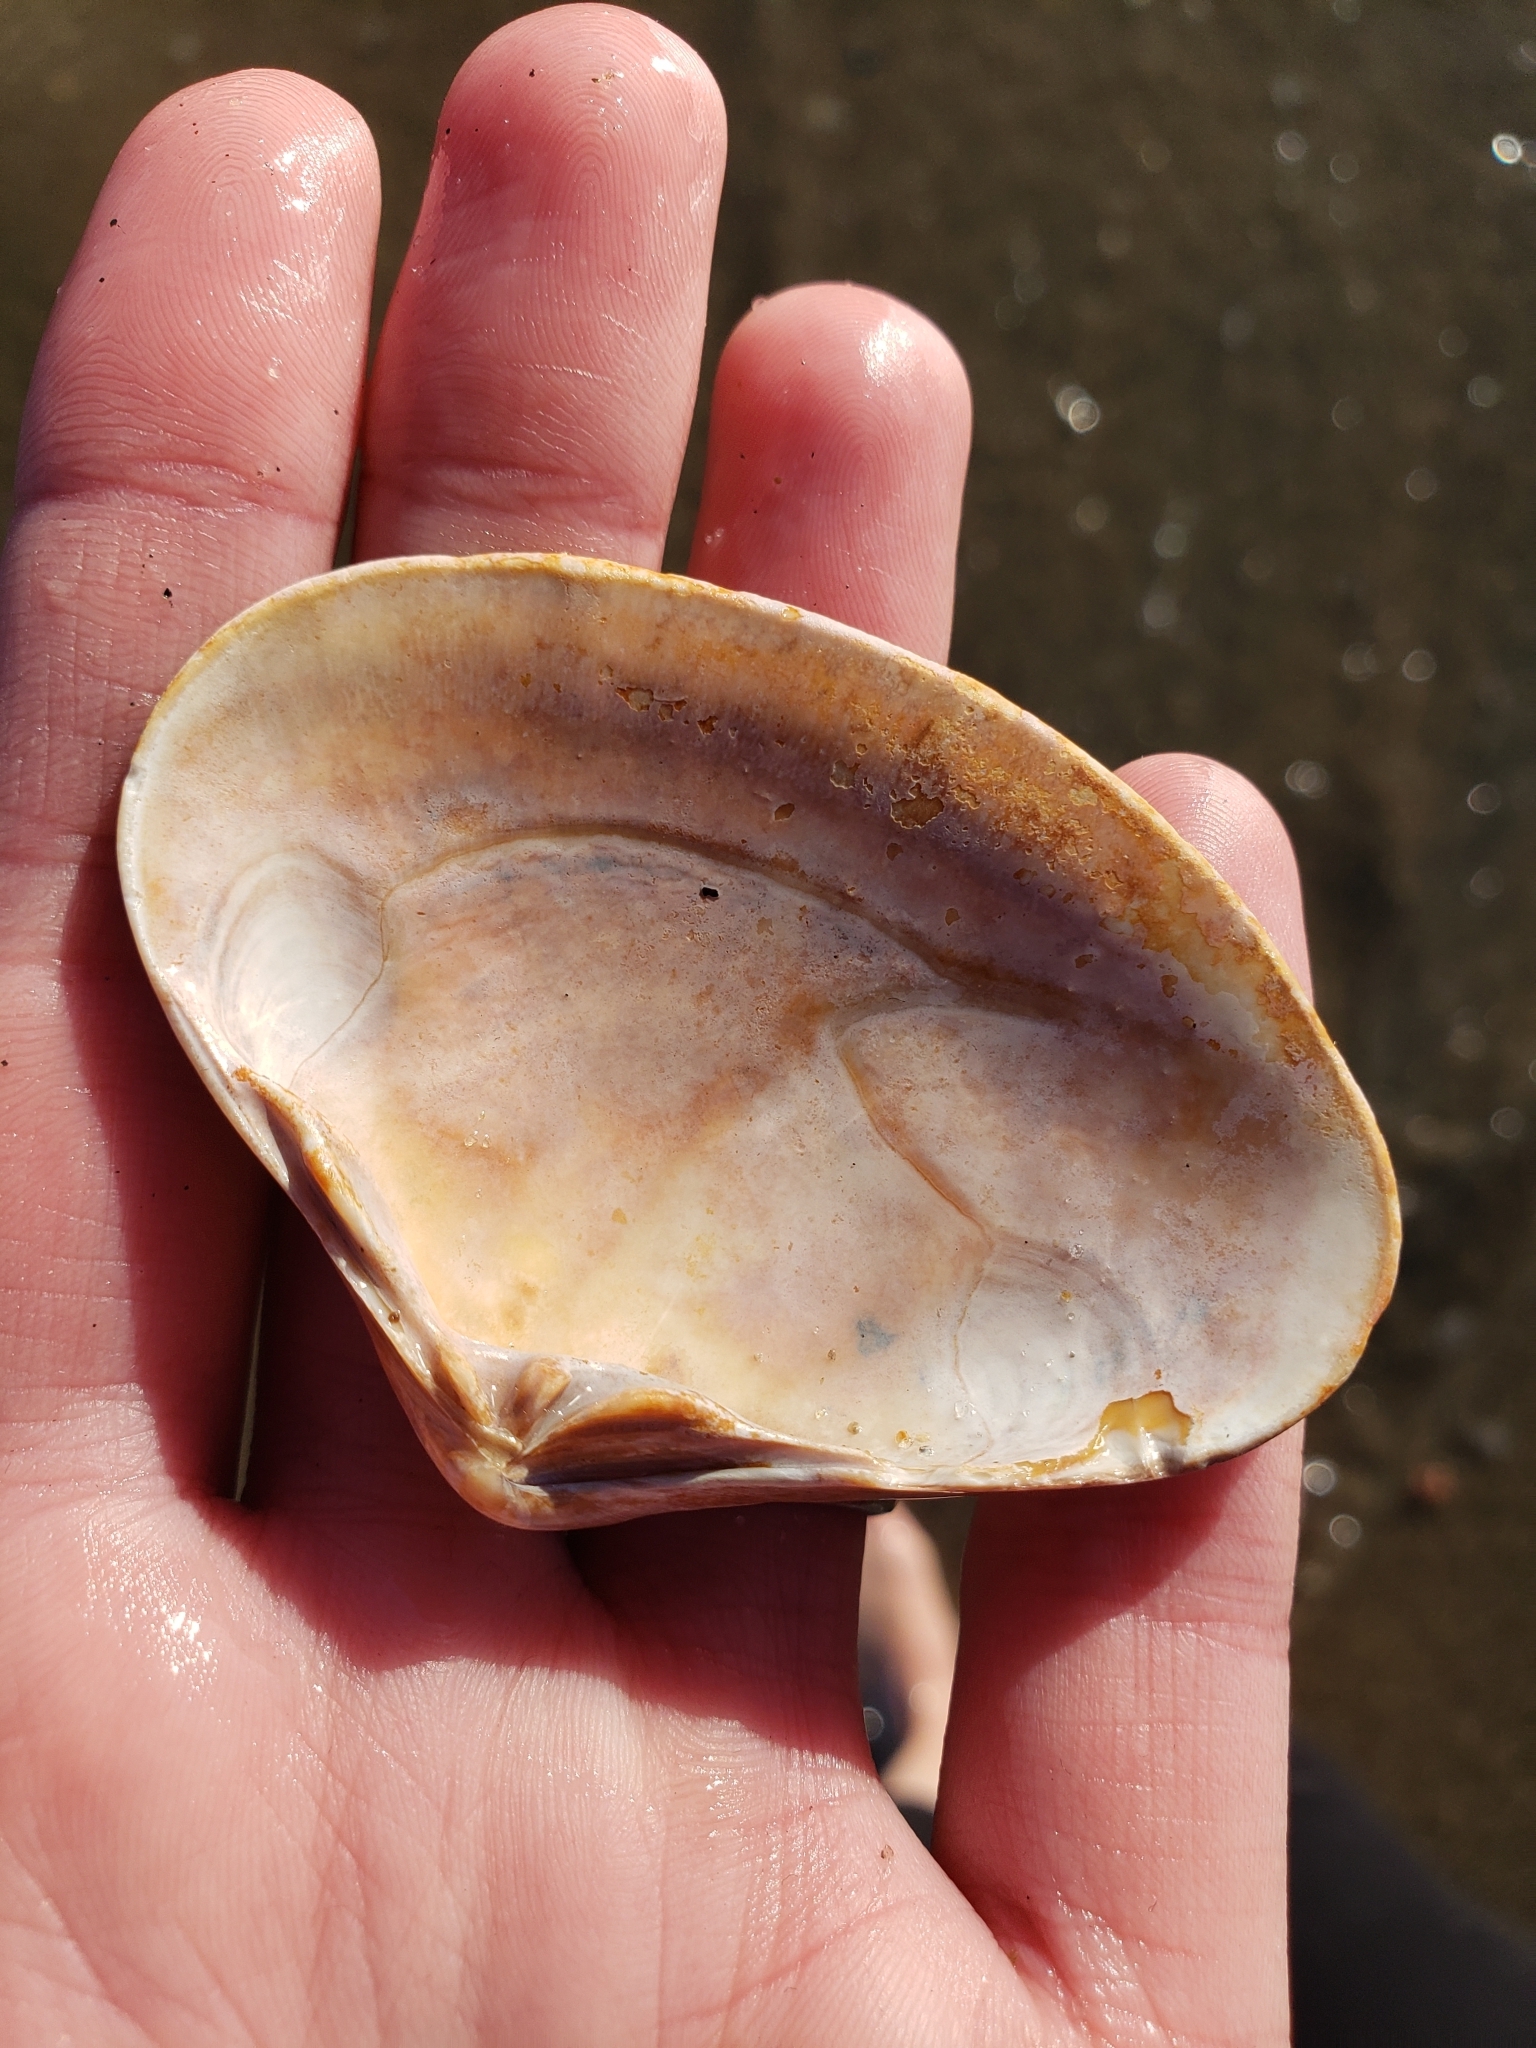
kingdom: Animalia
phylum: Mollusca
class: Bivalvia
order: Venerida
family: Veneridae
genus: Tivela
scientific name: Tivela stultorum
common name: Pismo clam
